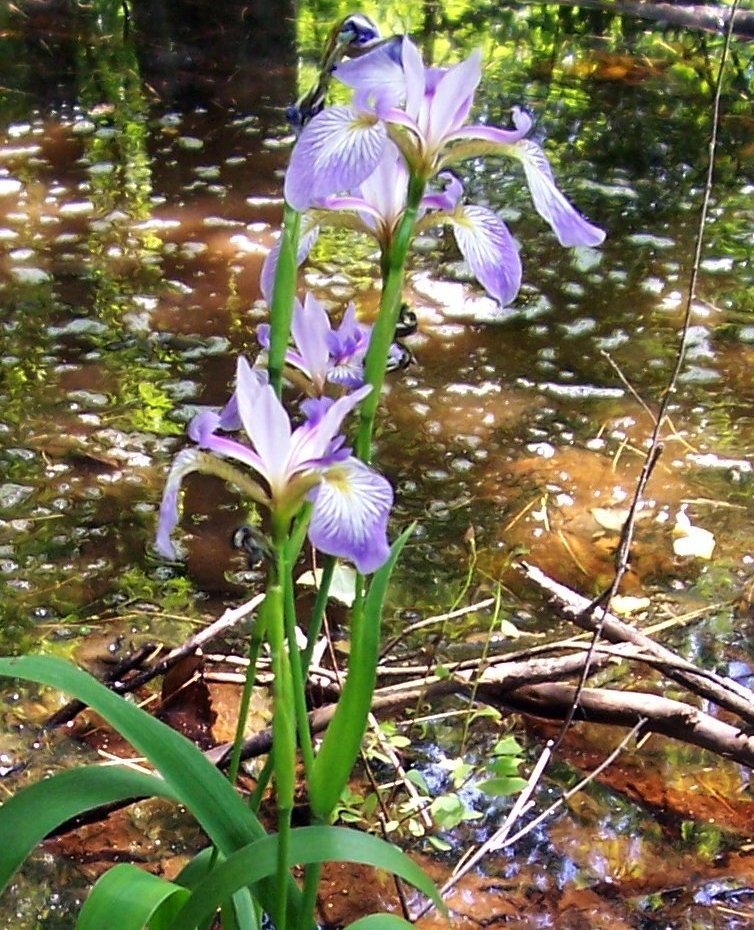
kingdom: Plantae
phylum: Tracheophyta
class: Liliopsida
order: Asparagales
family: Iridaceae
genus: Iris
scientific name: Iris versicolor
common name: Purple iris
